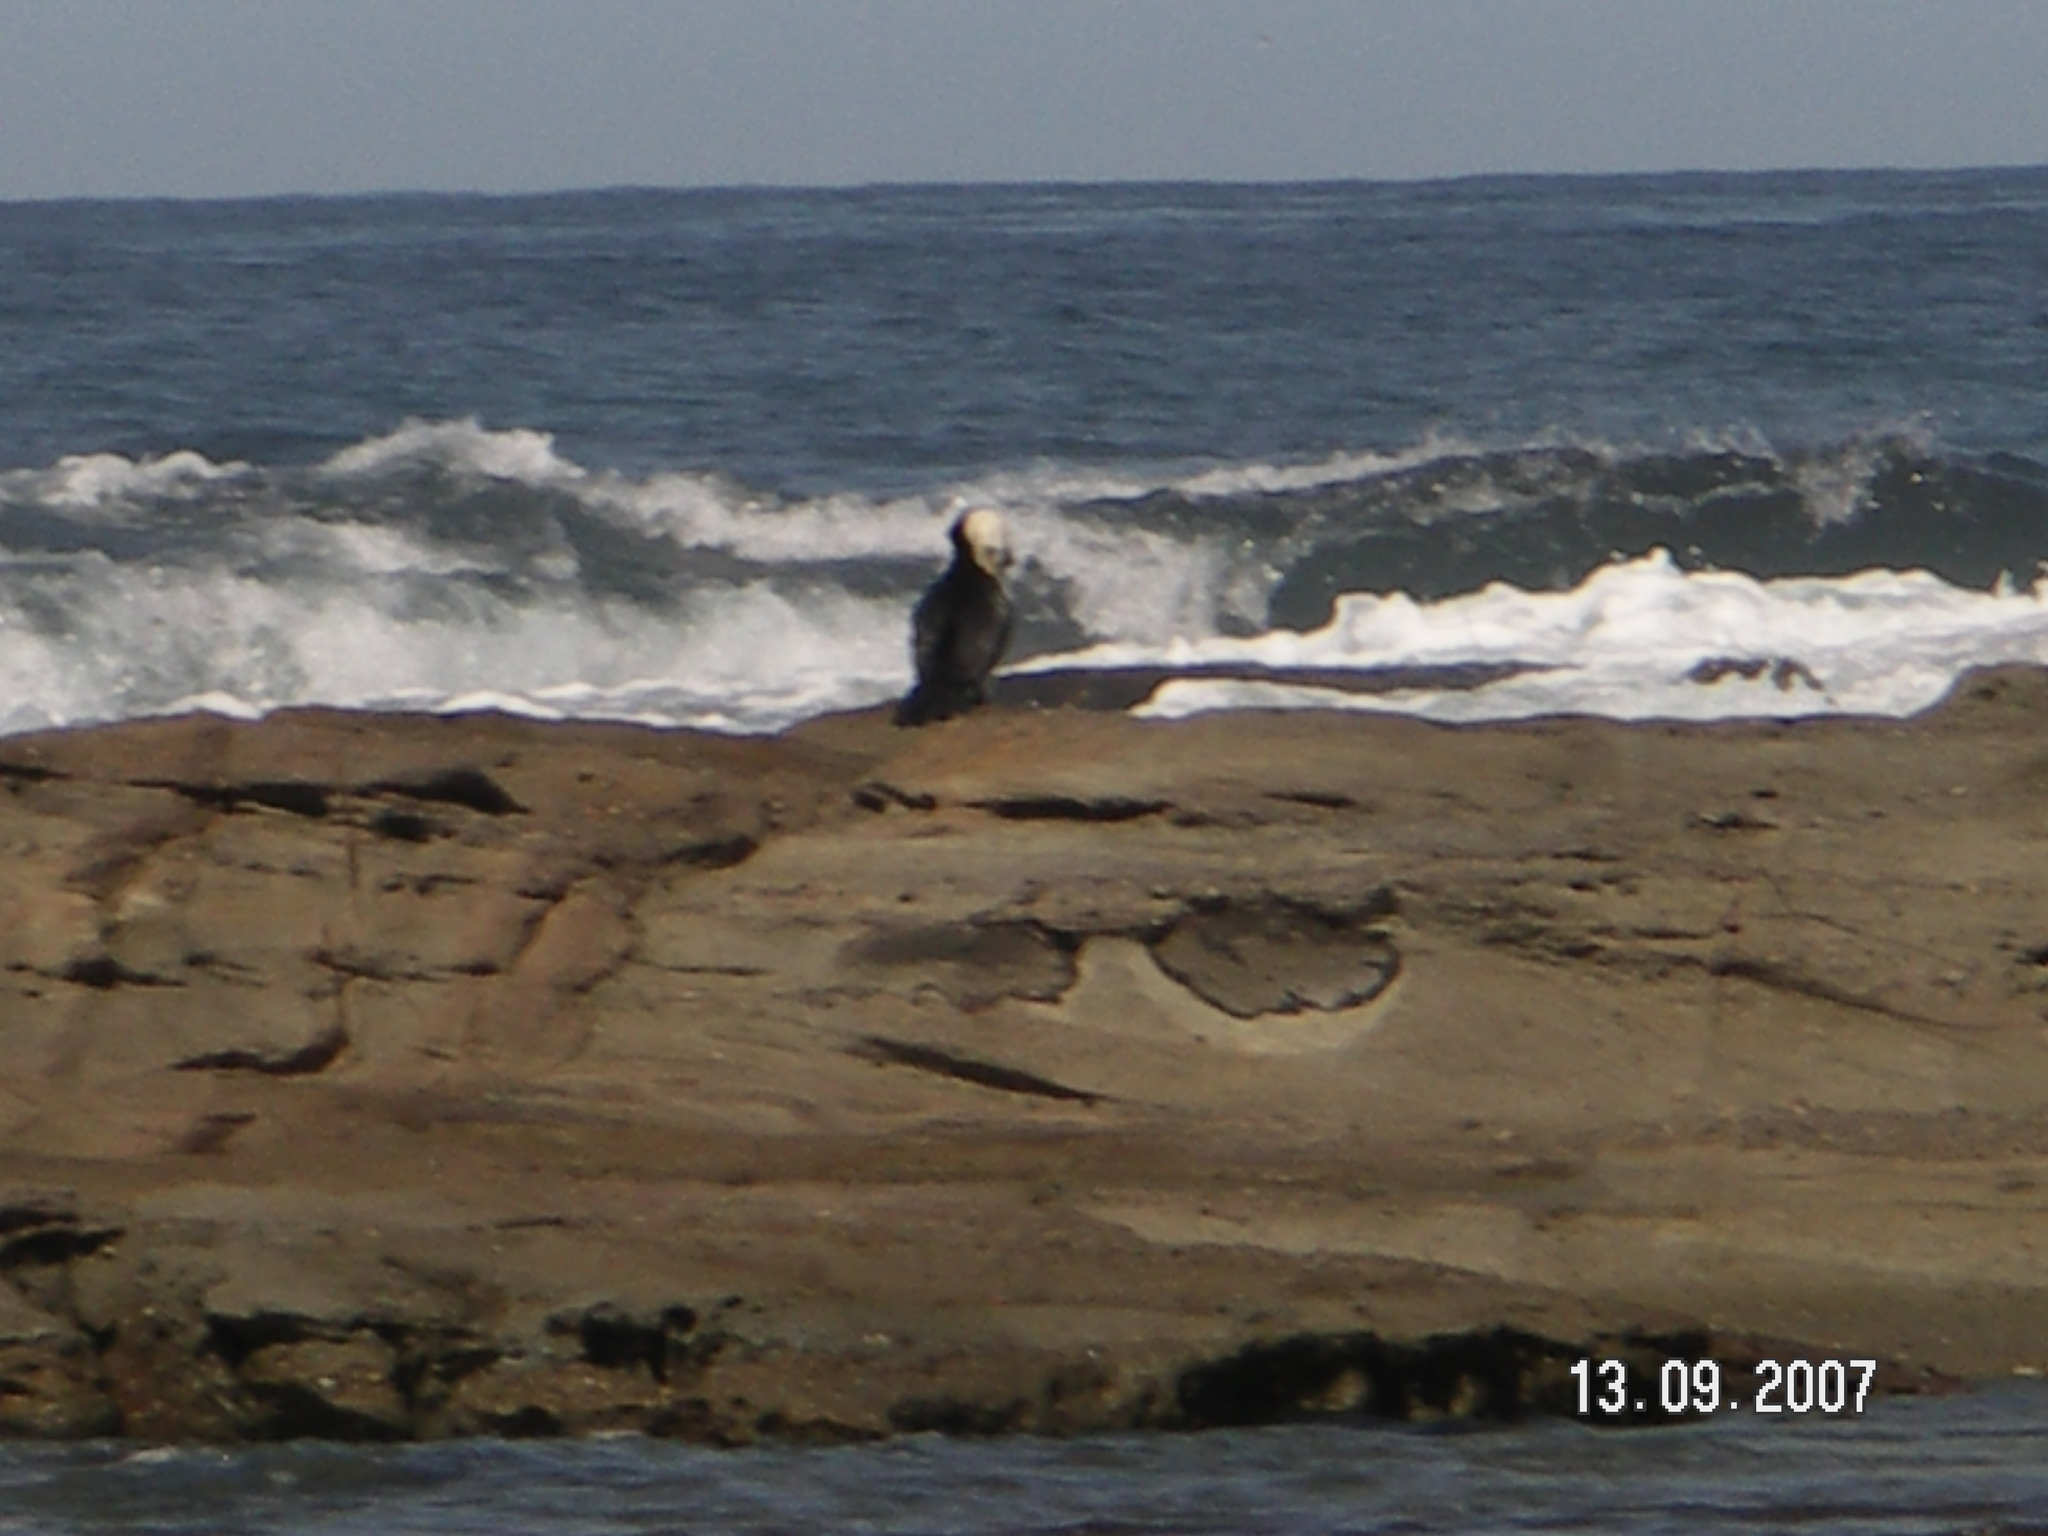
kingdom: Animalia
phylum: Chordata
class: Aves
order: Suliformes
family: Phalacrocoracidae
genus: Microcarbo
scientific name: Microcarbo melanoleucos
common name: Little pied cormorant
